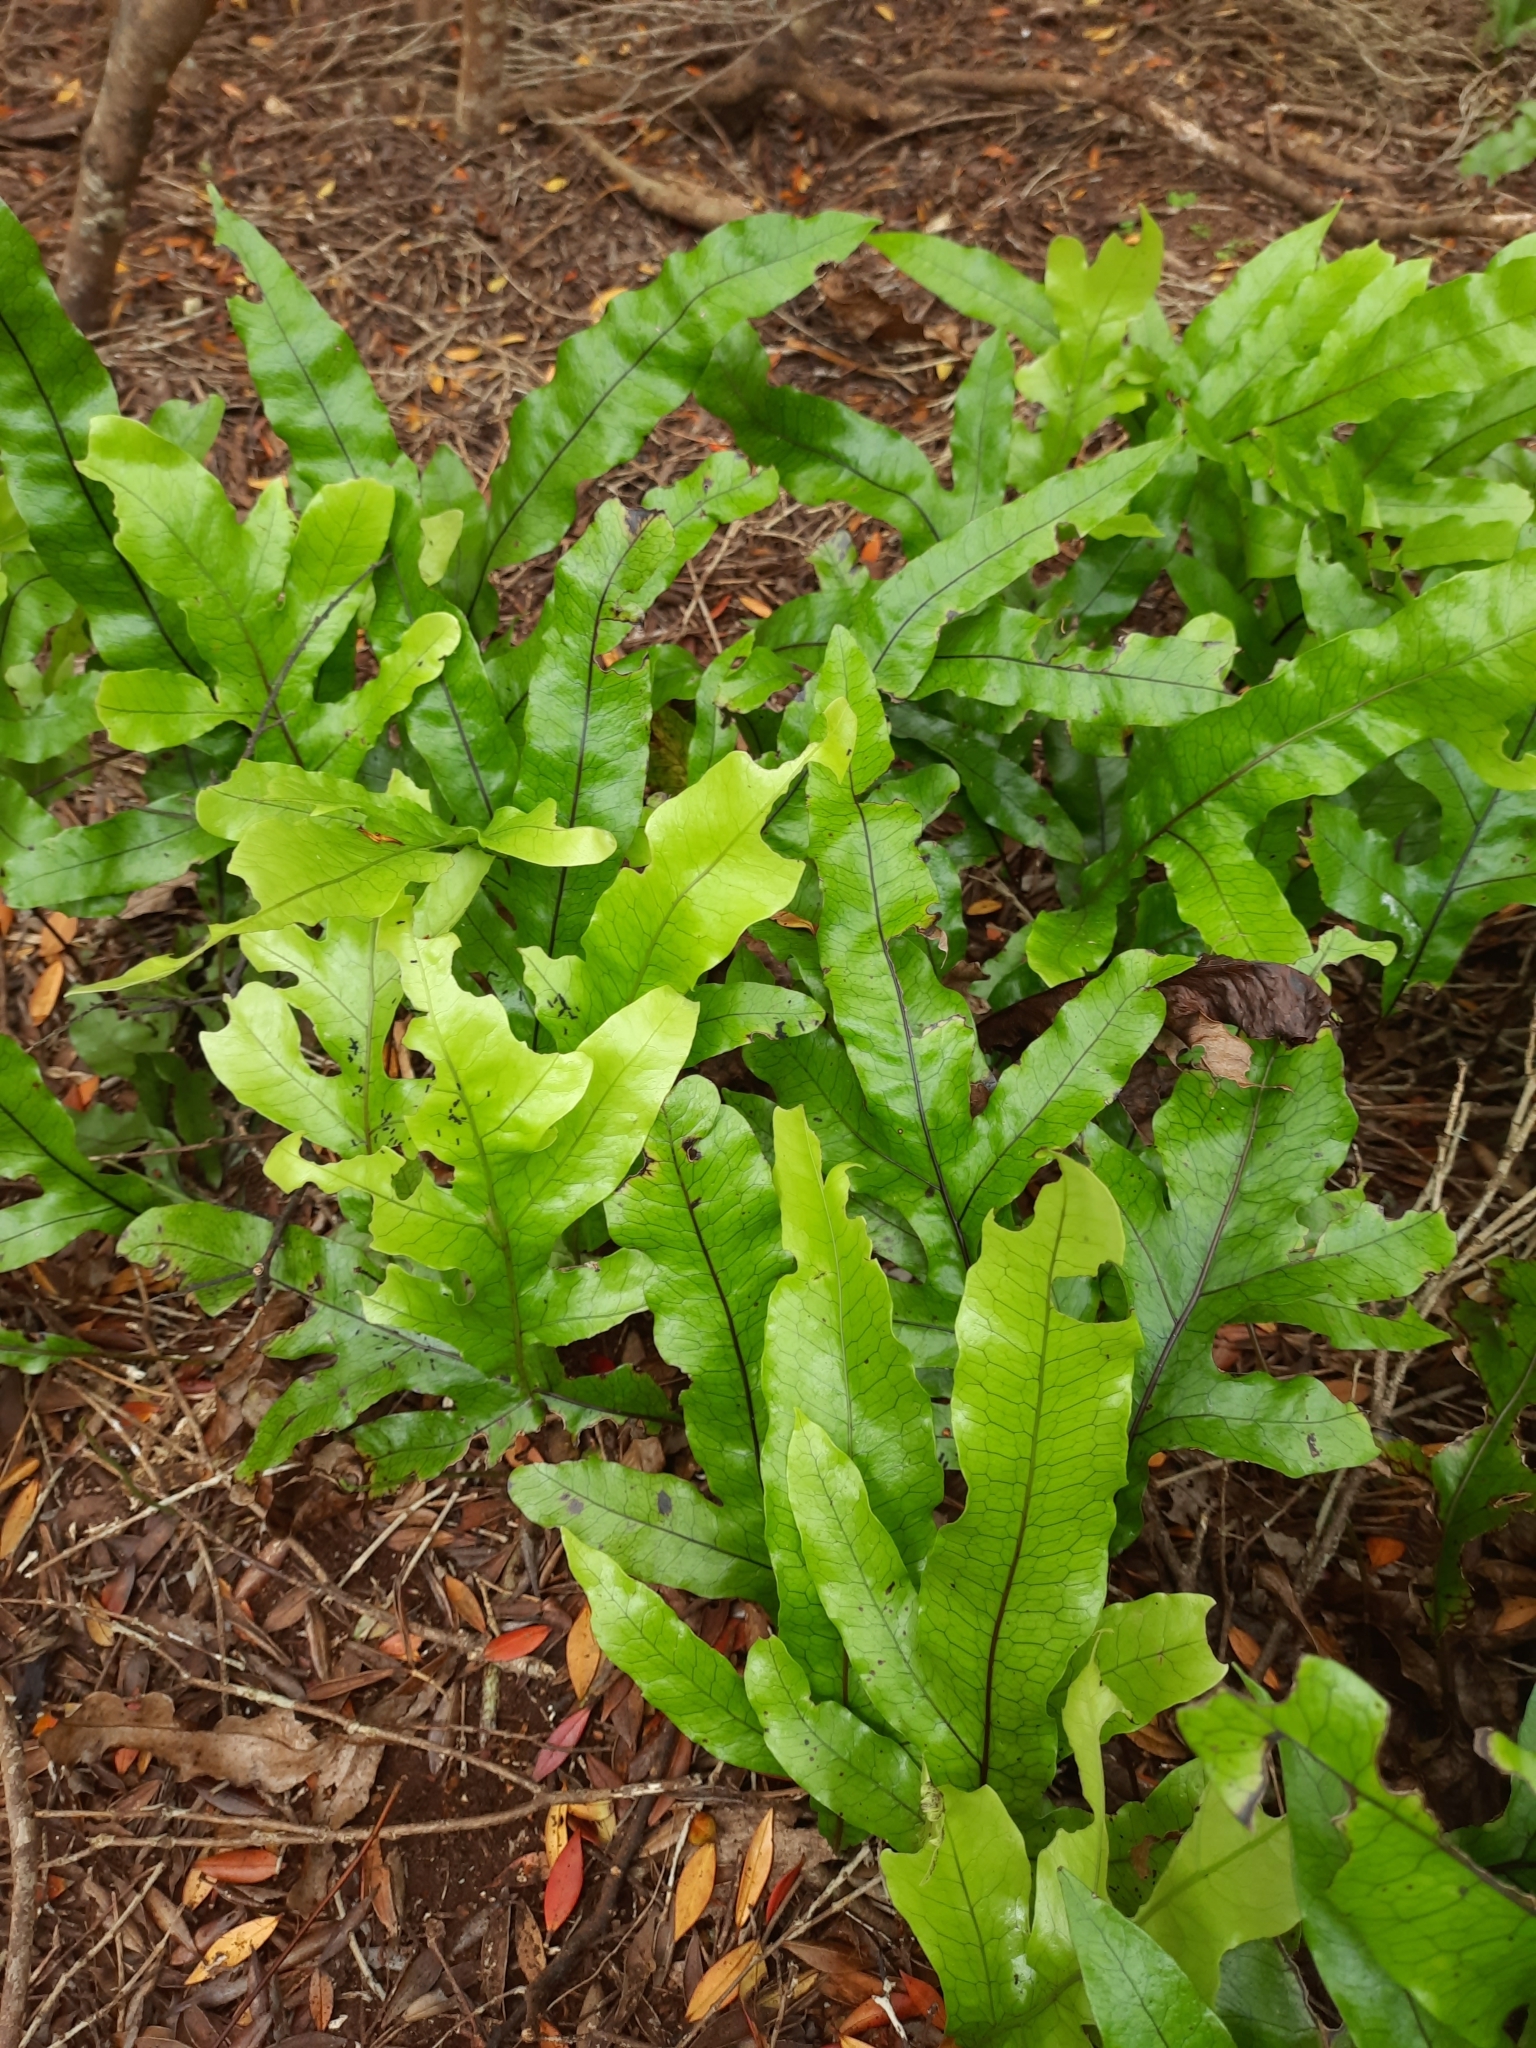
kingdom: Plantae
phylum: Tracheophyta
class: Polypodiopsida
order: Polypodiales
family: Polypodiaceae
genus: Lecanopteris
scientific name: Lecanopteris pustulata
